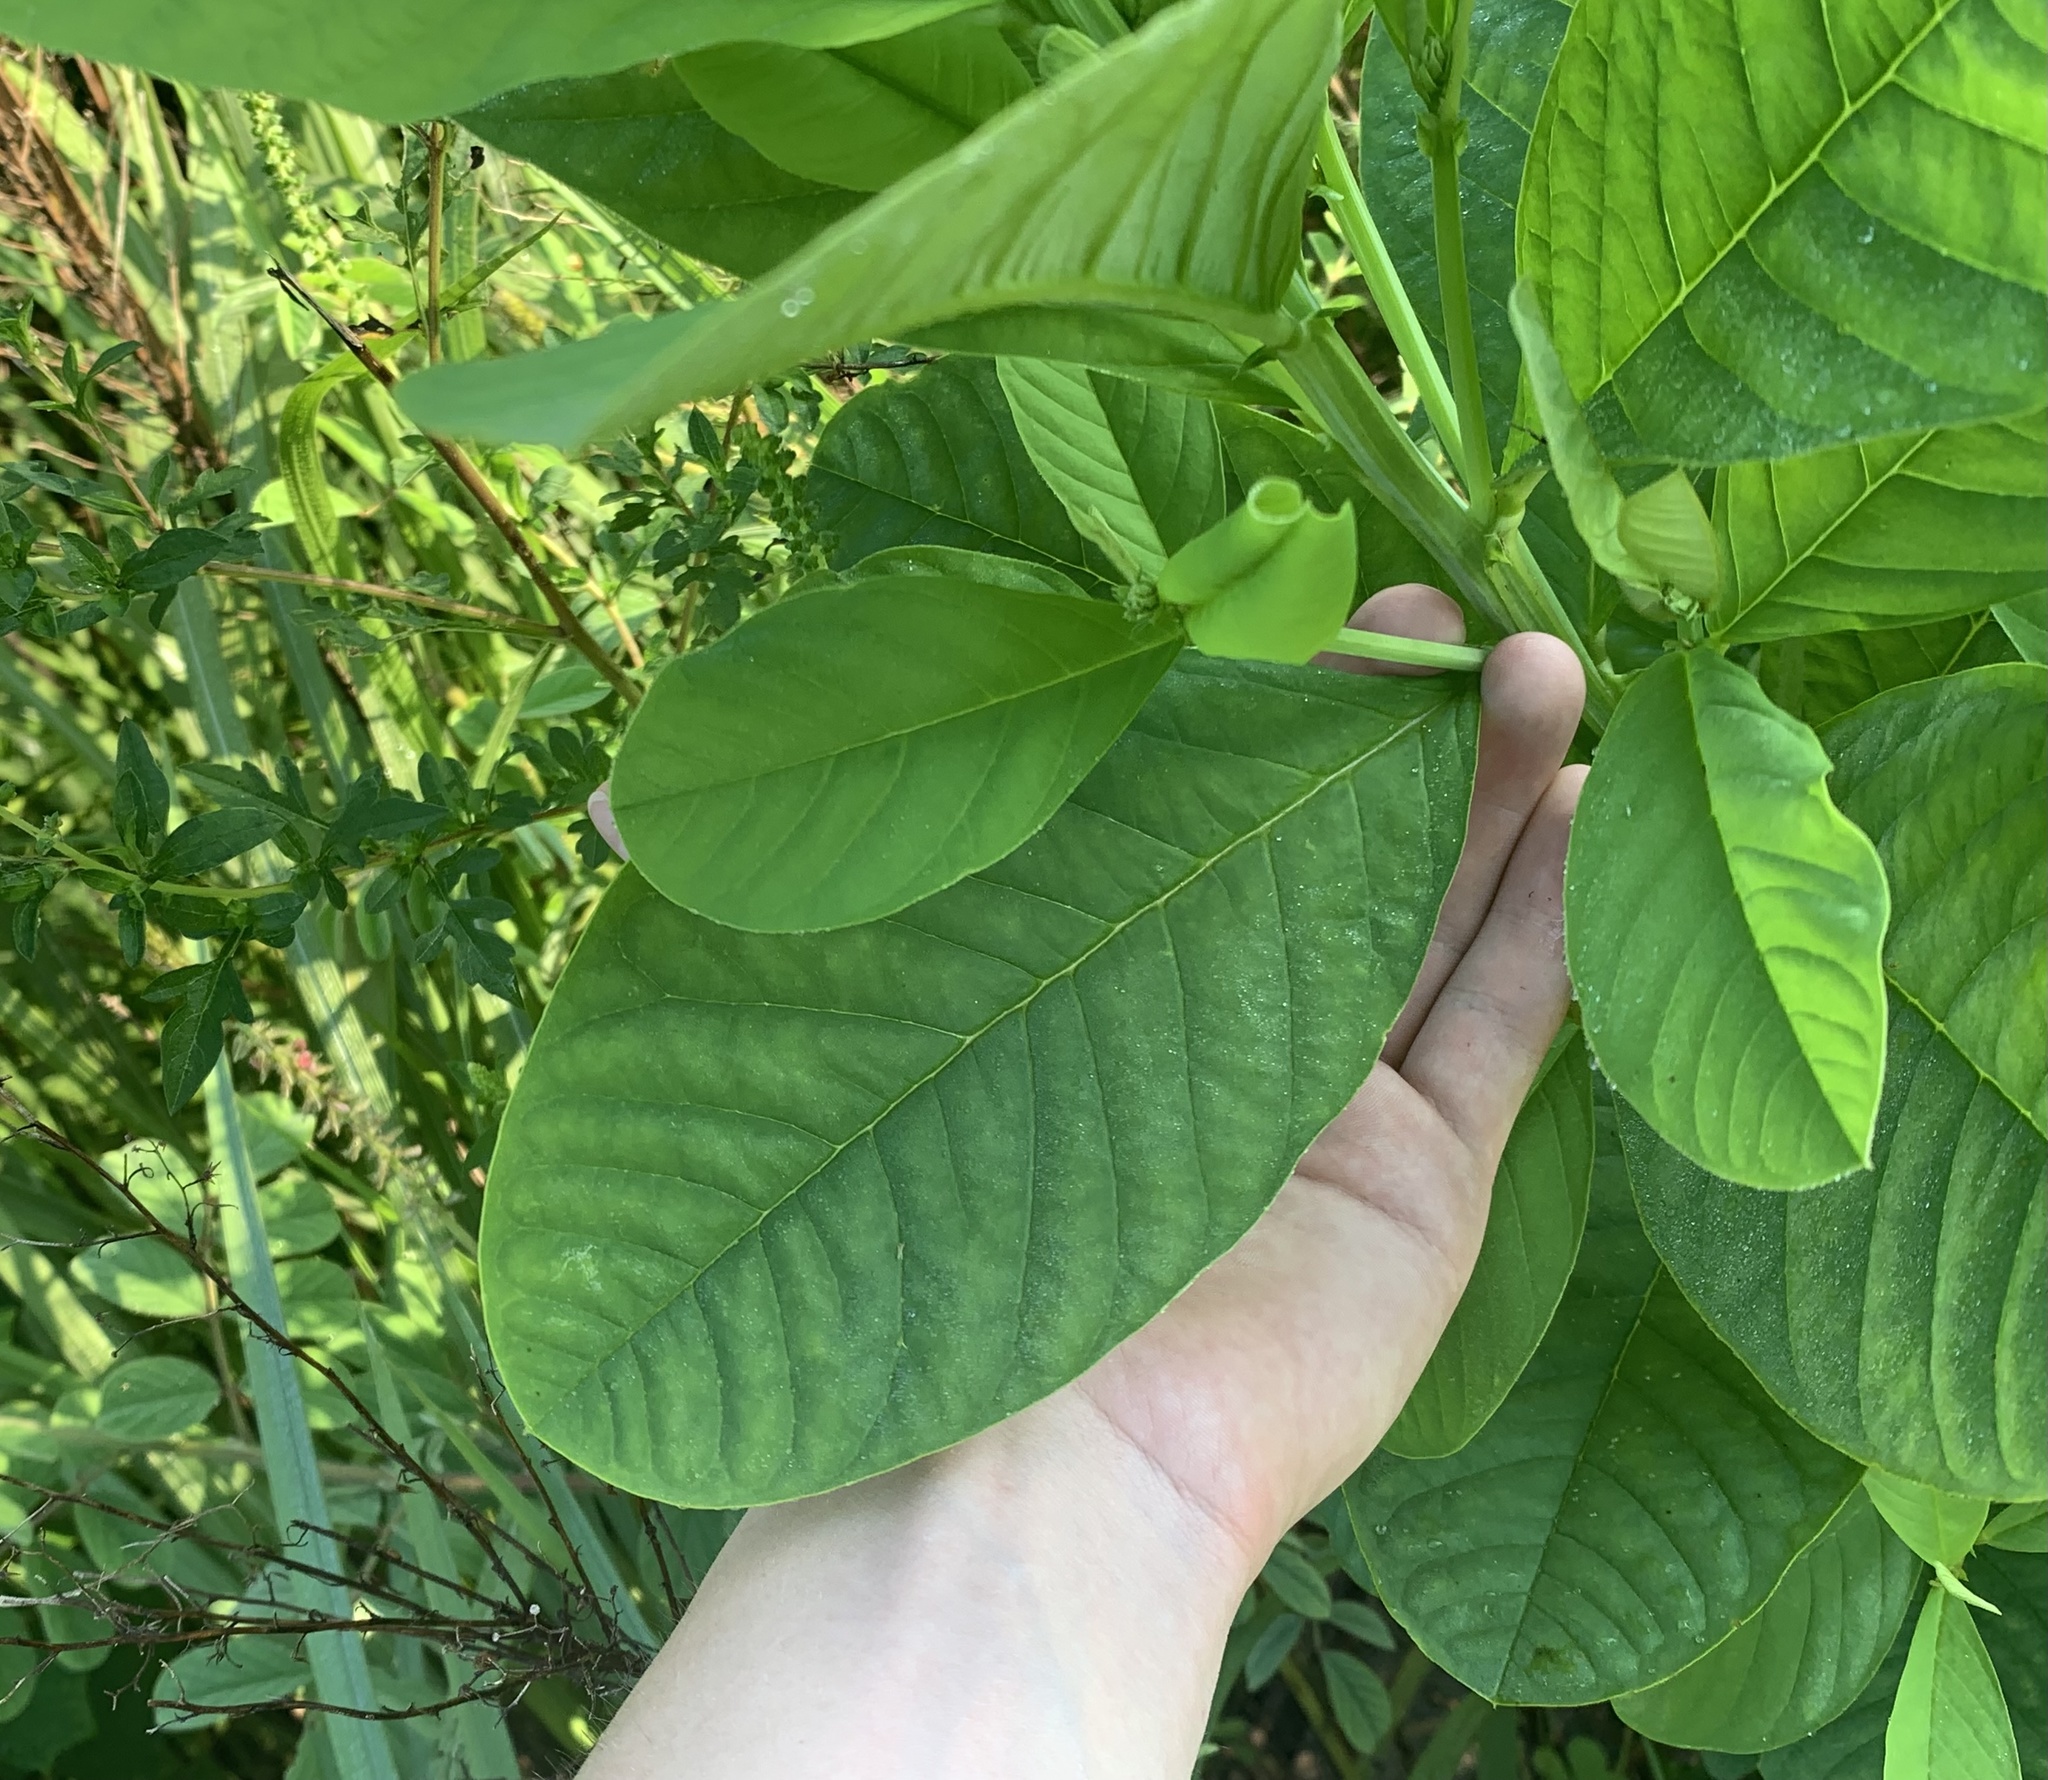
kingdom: Plantae
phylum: Tracheophyta
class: Magnoliopsida
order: Fabales
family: Fabaceae
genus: Crotalaria
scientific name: Crotalaria spectabilis
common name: Showy rattlebox
